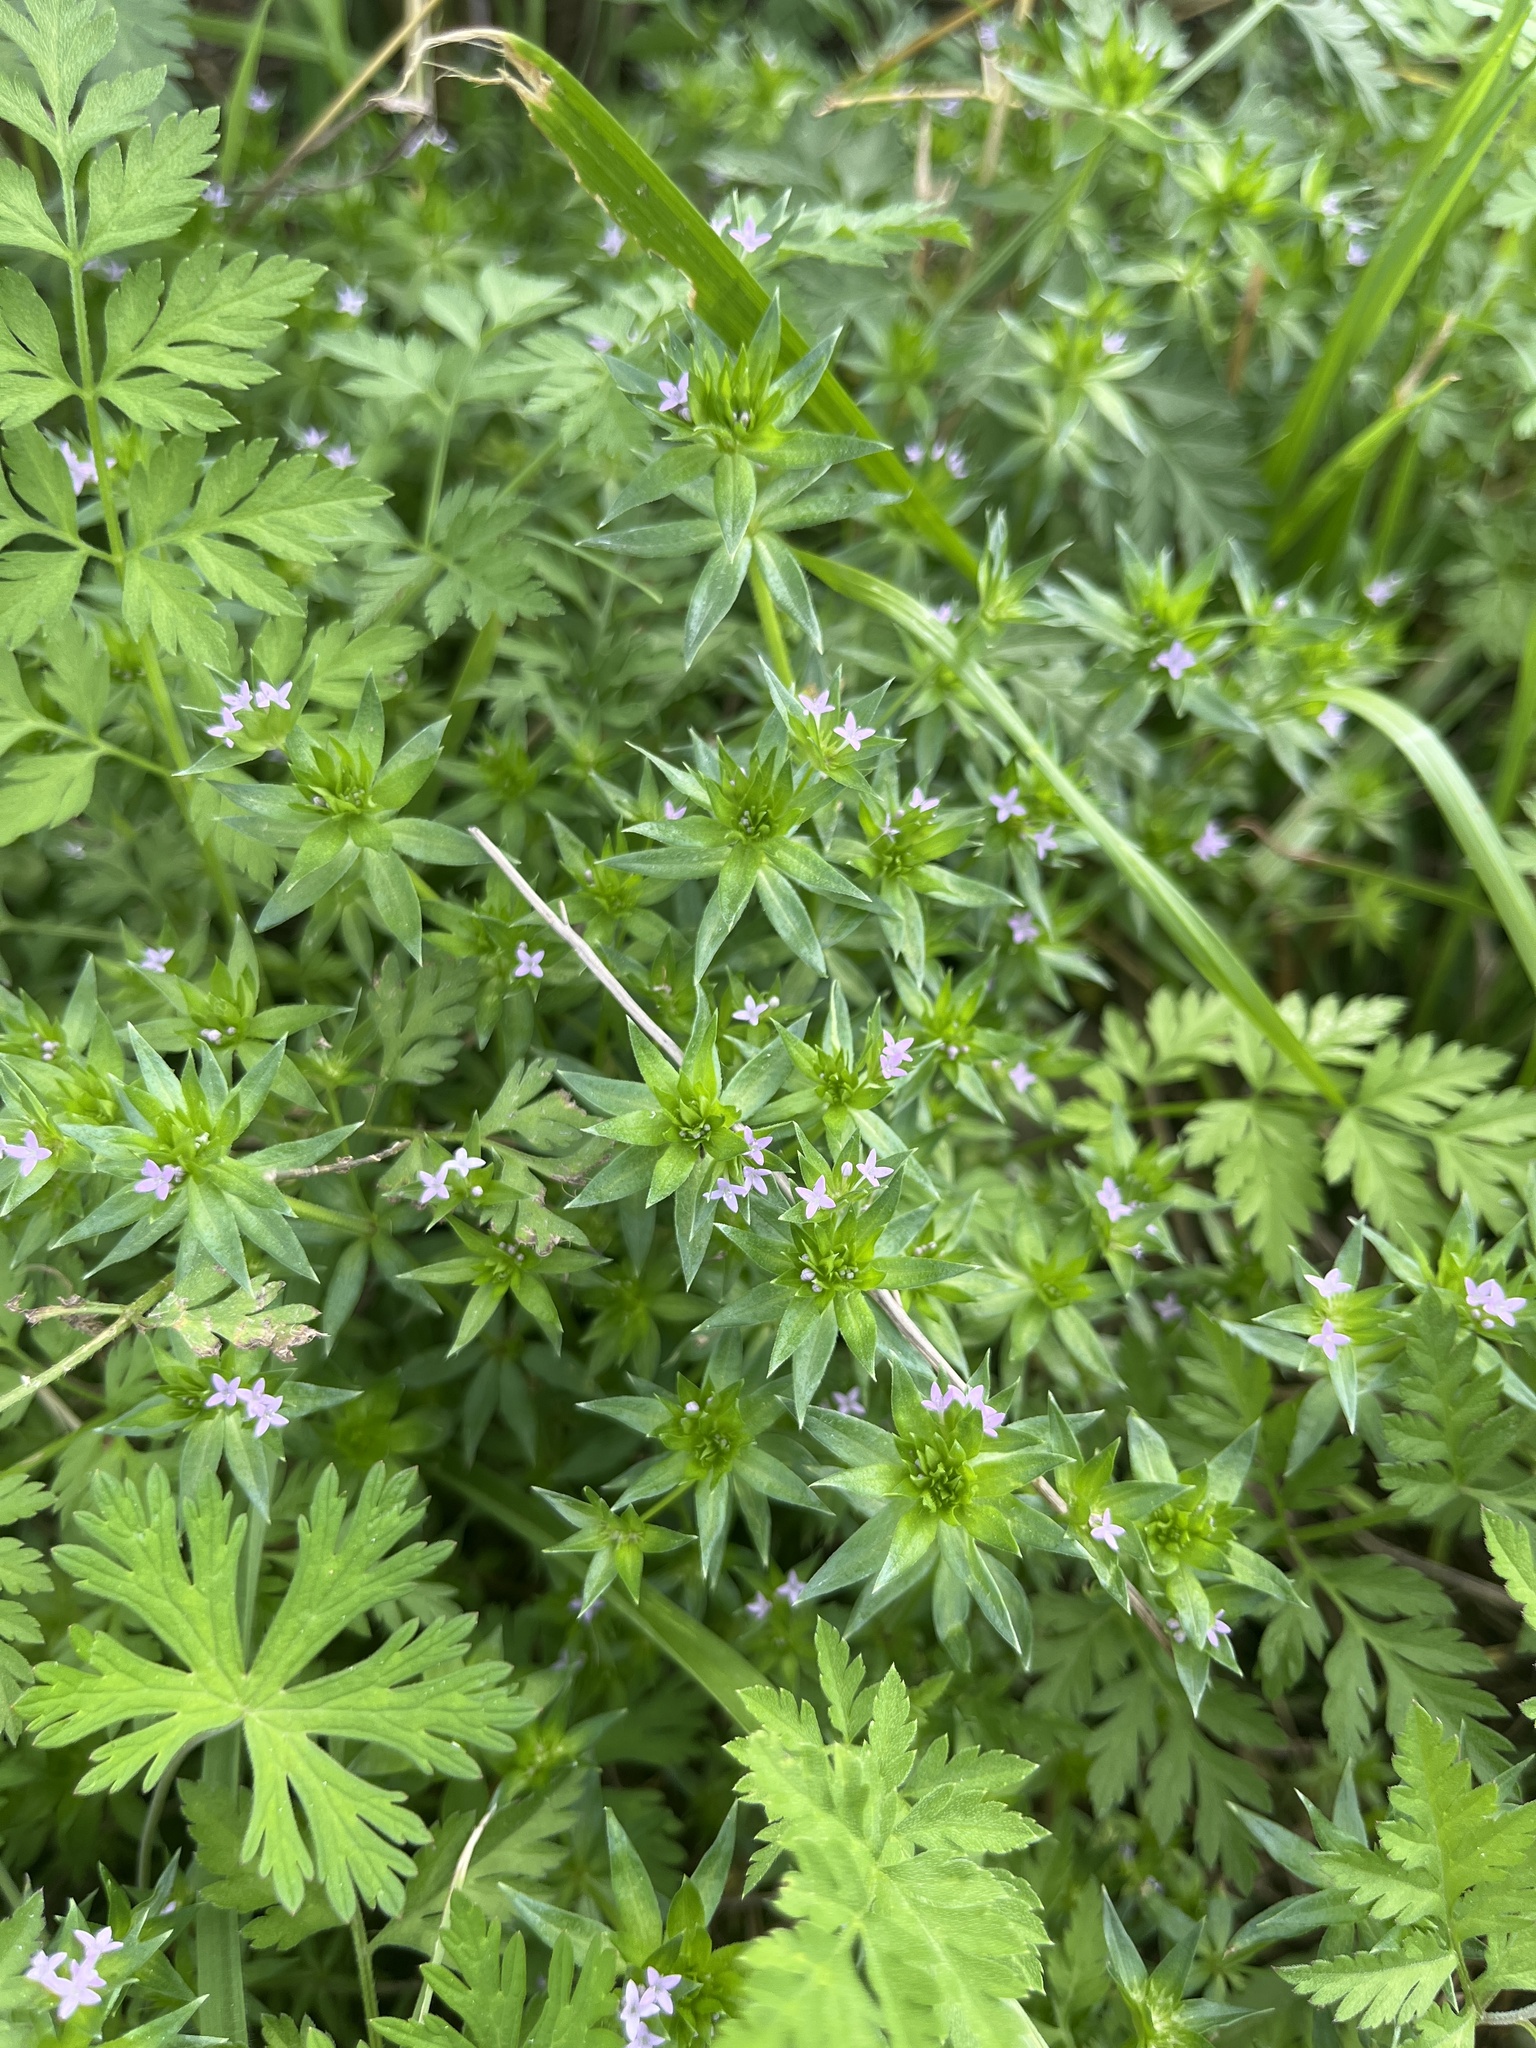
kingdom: Plantae
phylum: Tracheophyta
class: Magnoliopsida
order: Gentianales
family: Rubiaceae
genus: Sherardia
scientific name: Sherardia arvensis
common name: Field madder
